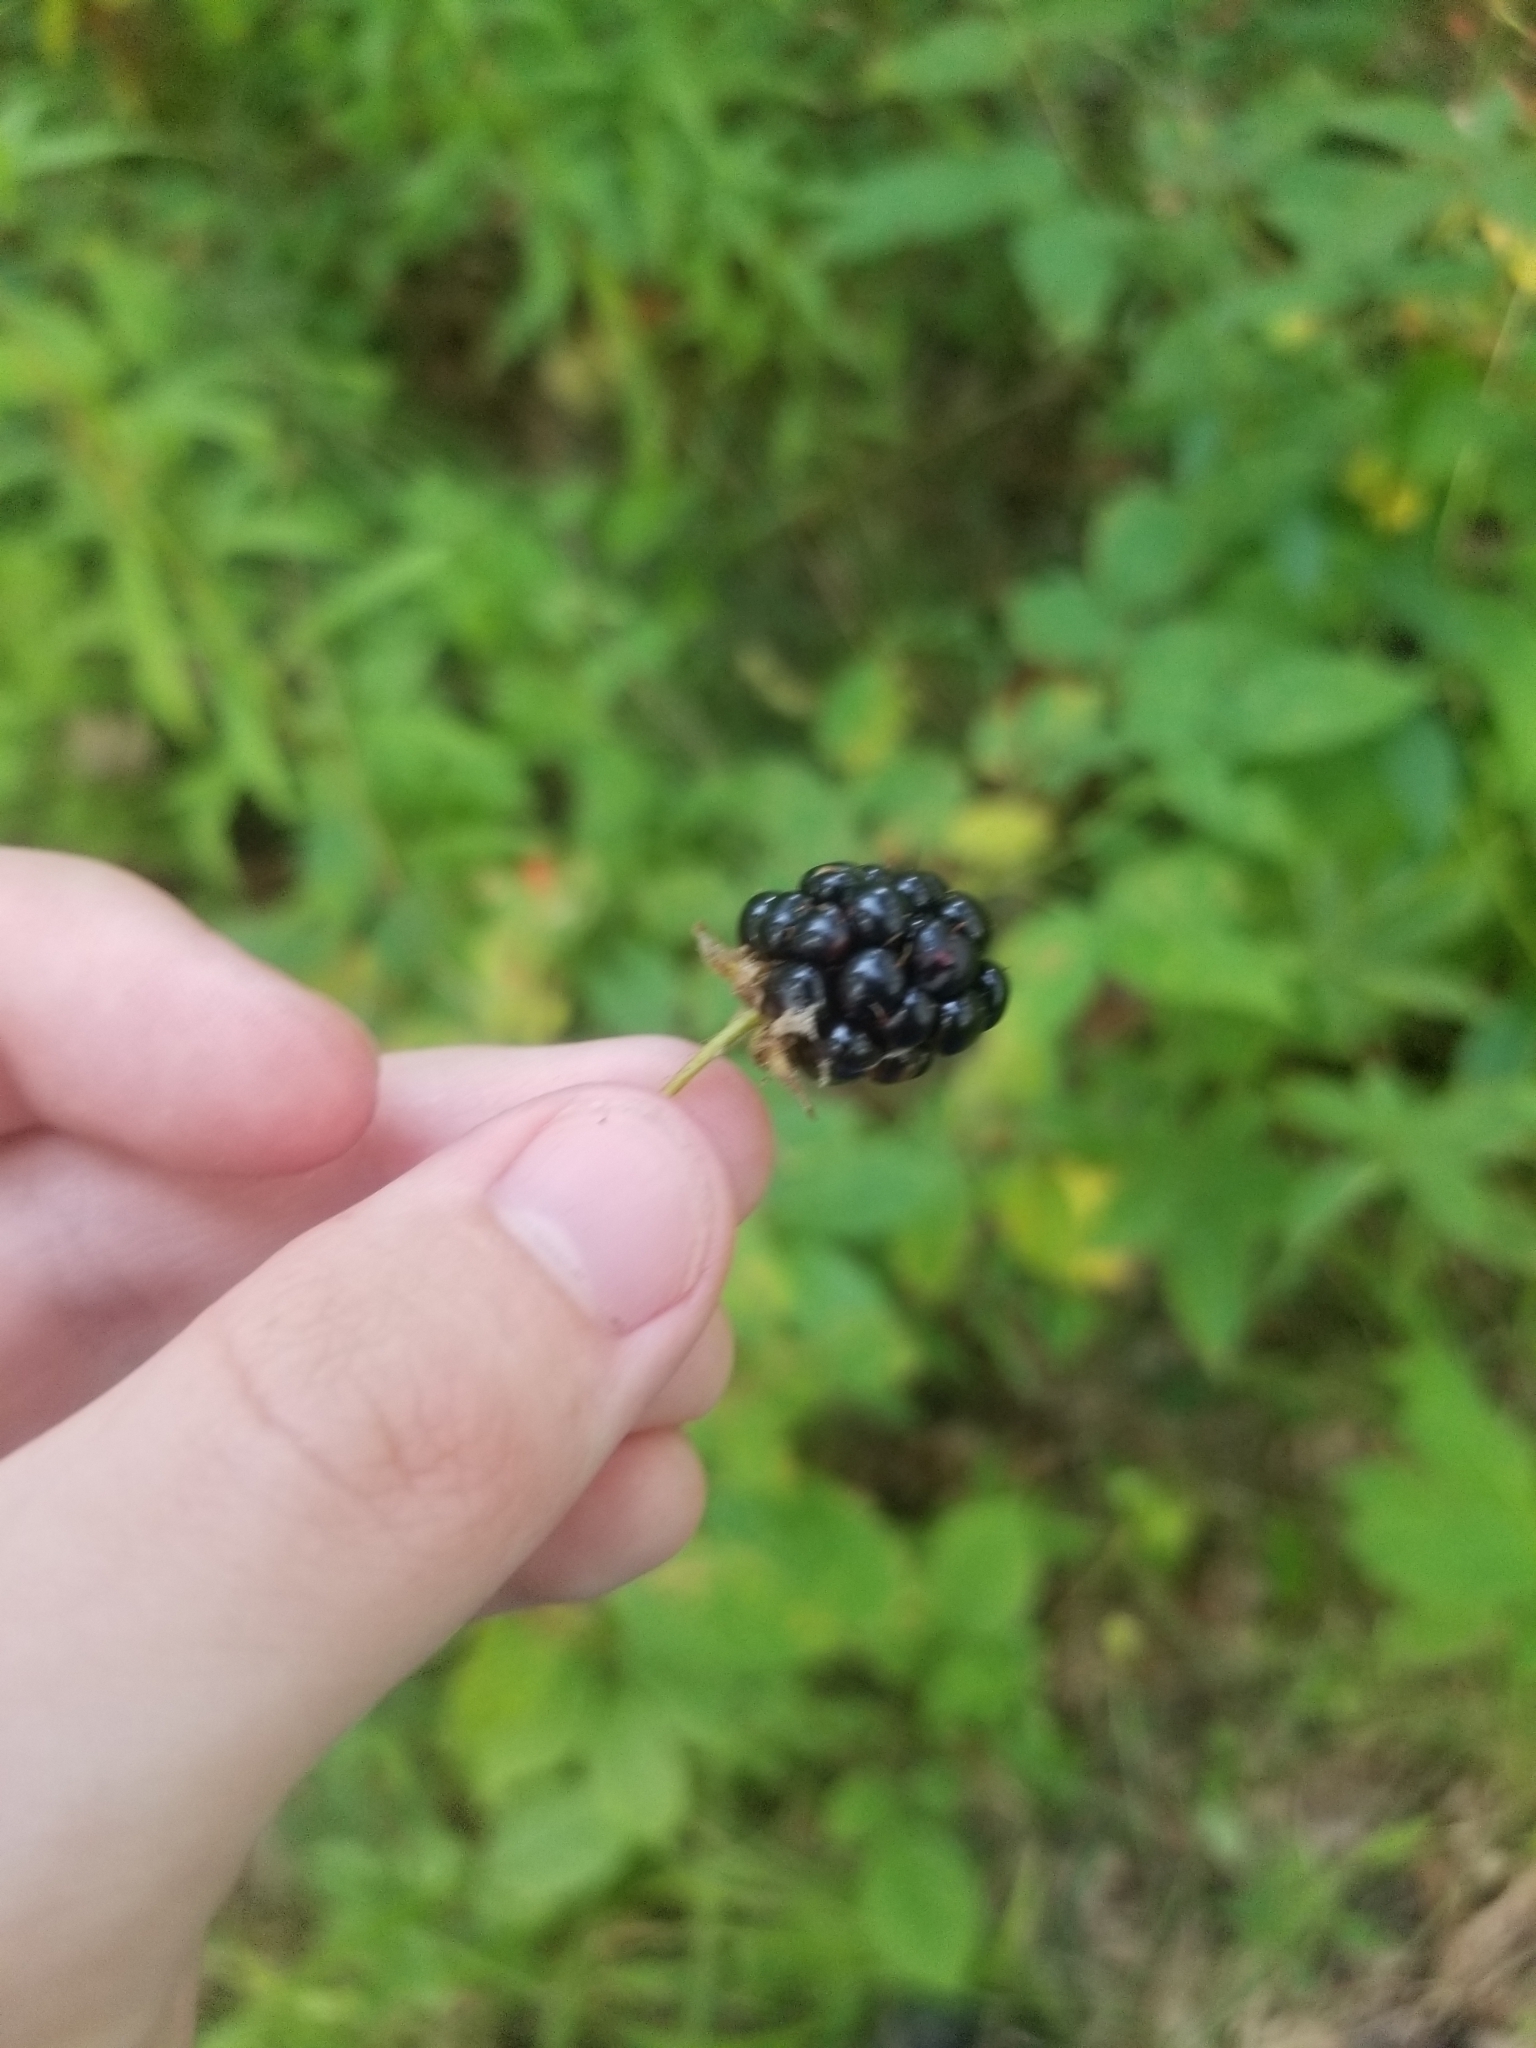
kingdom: Plantae
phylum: Tracheophyta
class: Magnoliopsida
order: Rosales
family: Rosaceae
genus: Rubus
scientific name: Rubus allegheniensis
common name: Allegheny blackberry
